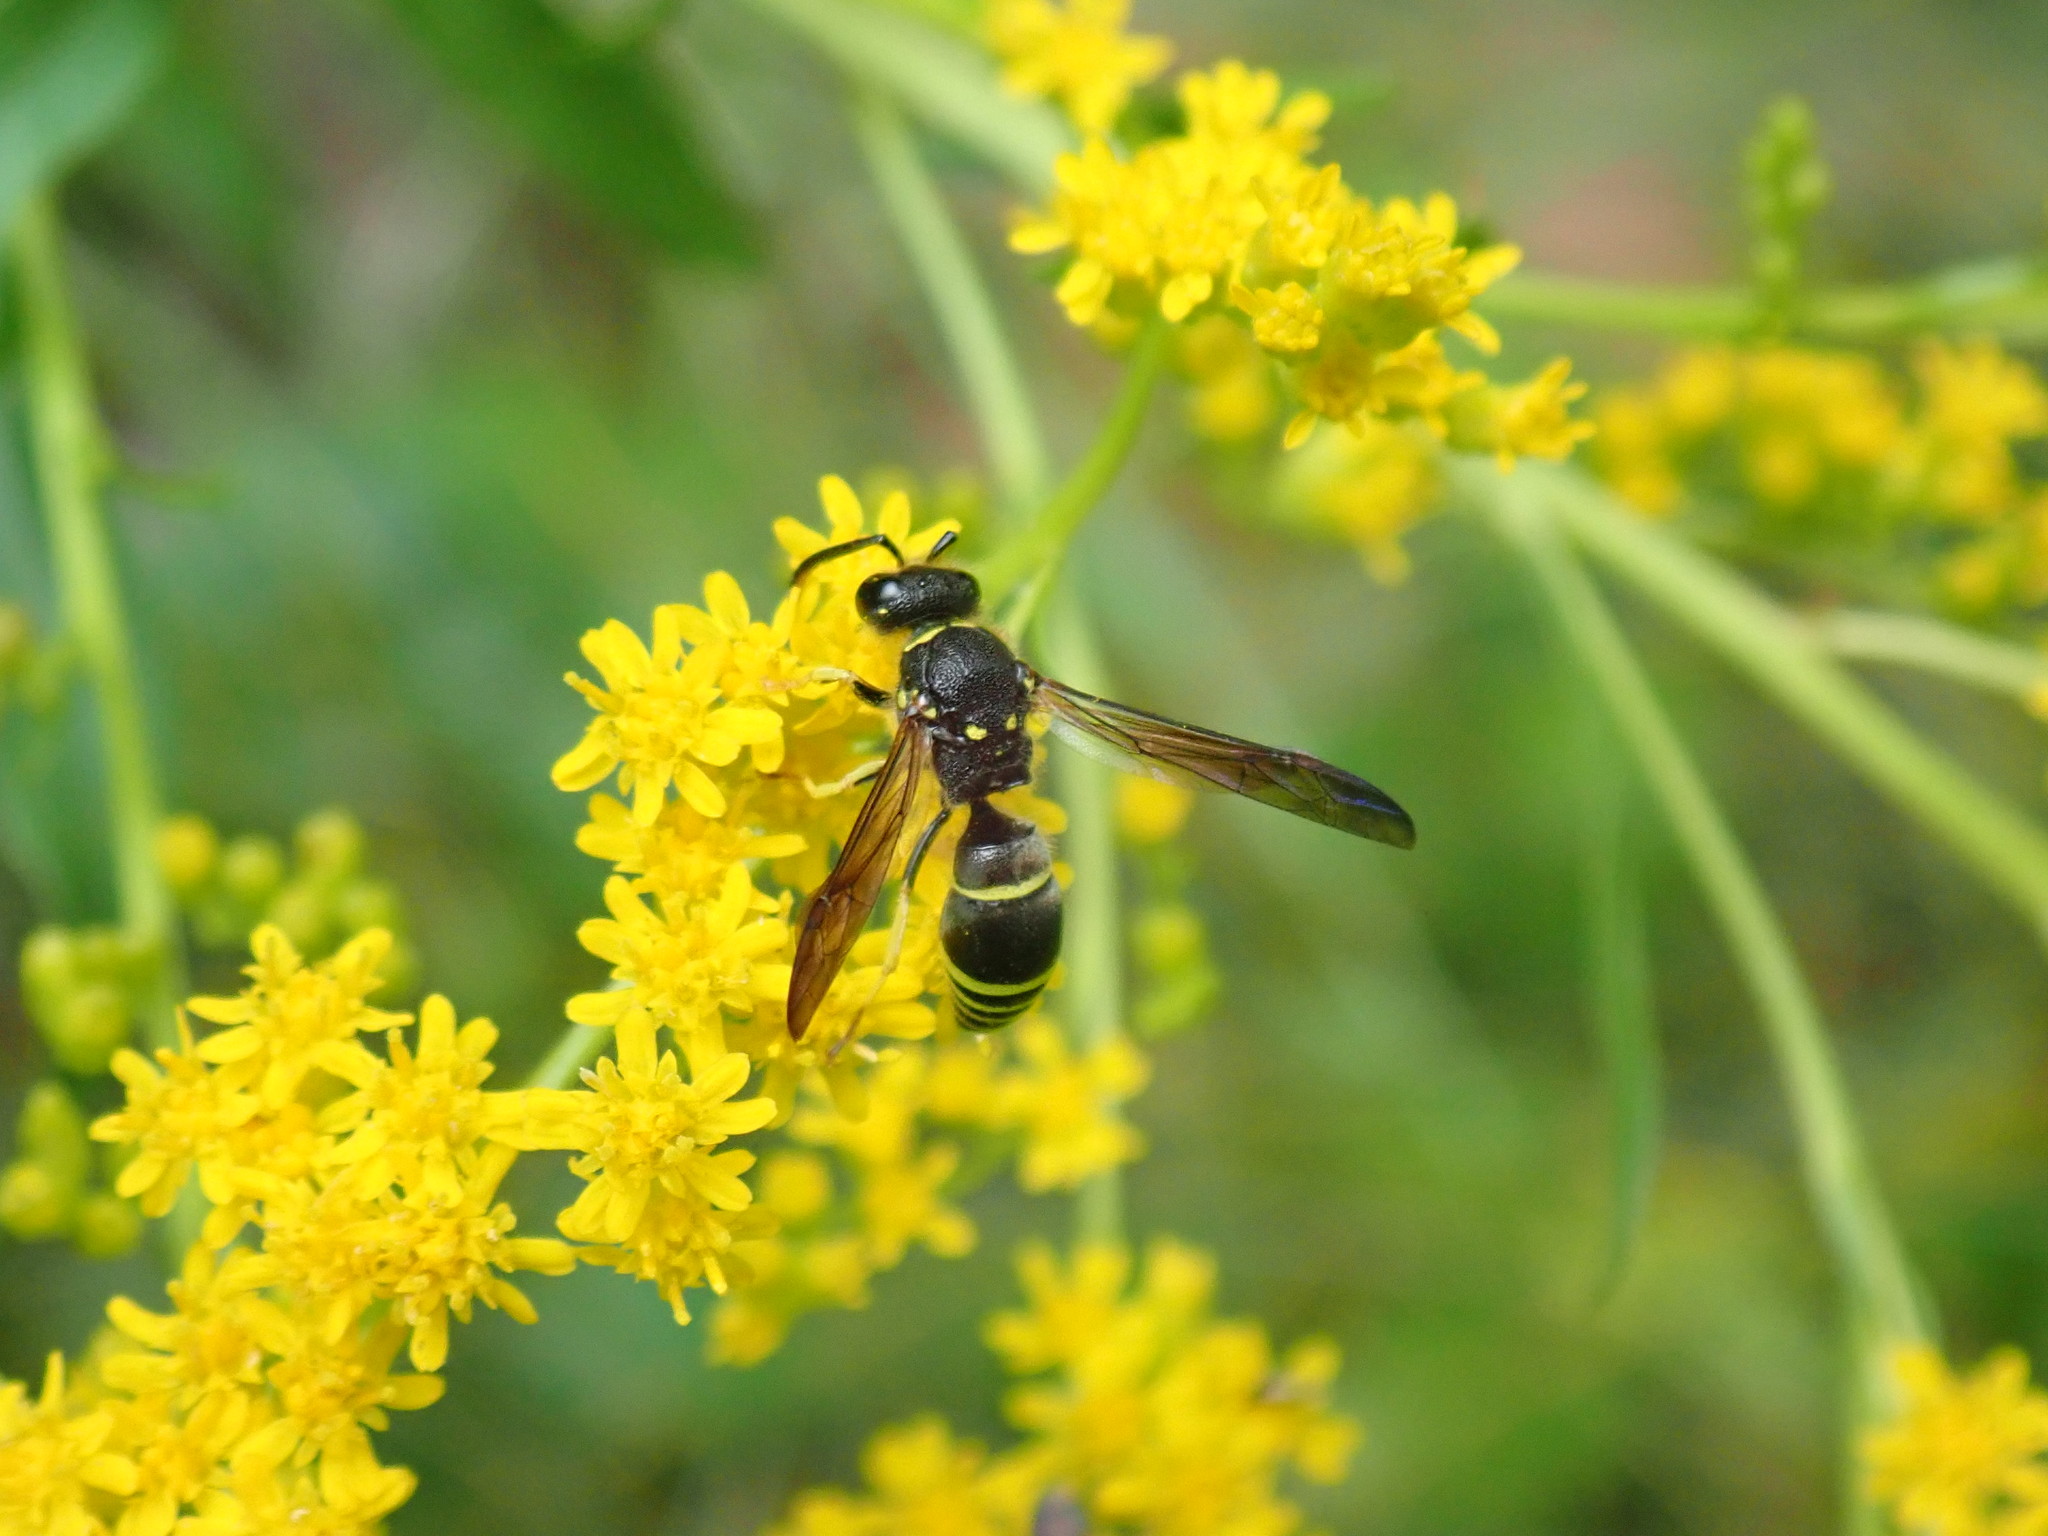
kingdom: Animalia
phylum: Arthropoda
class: Insecta
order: Hymenoptera
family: Vespidae
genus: Ancistrocerus
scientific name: Ancistrocerus
